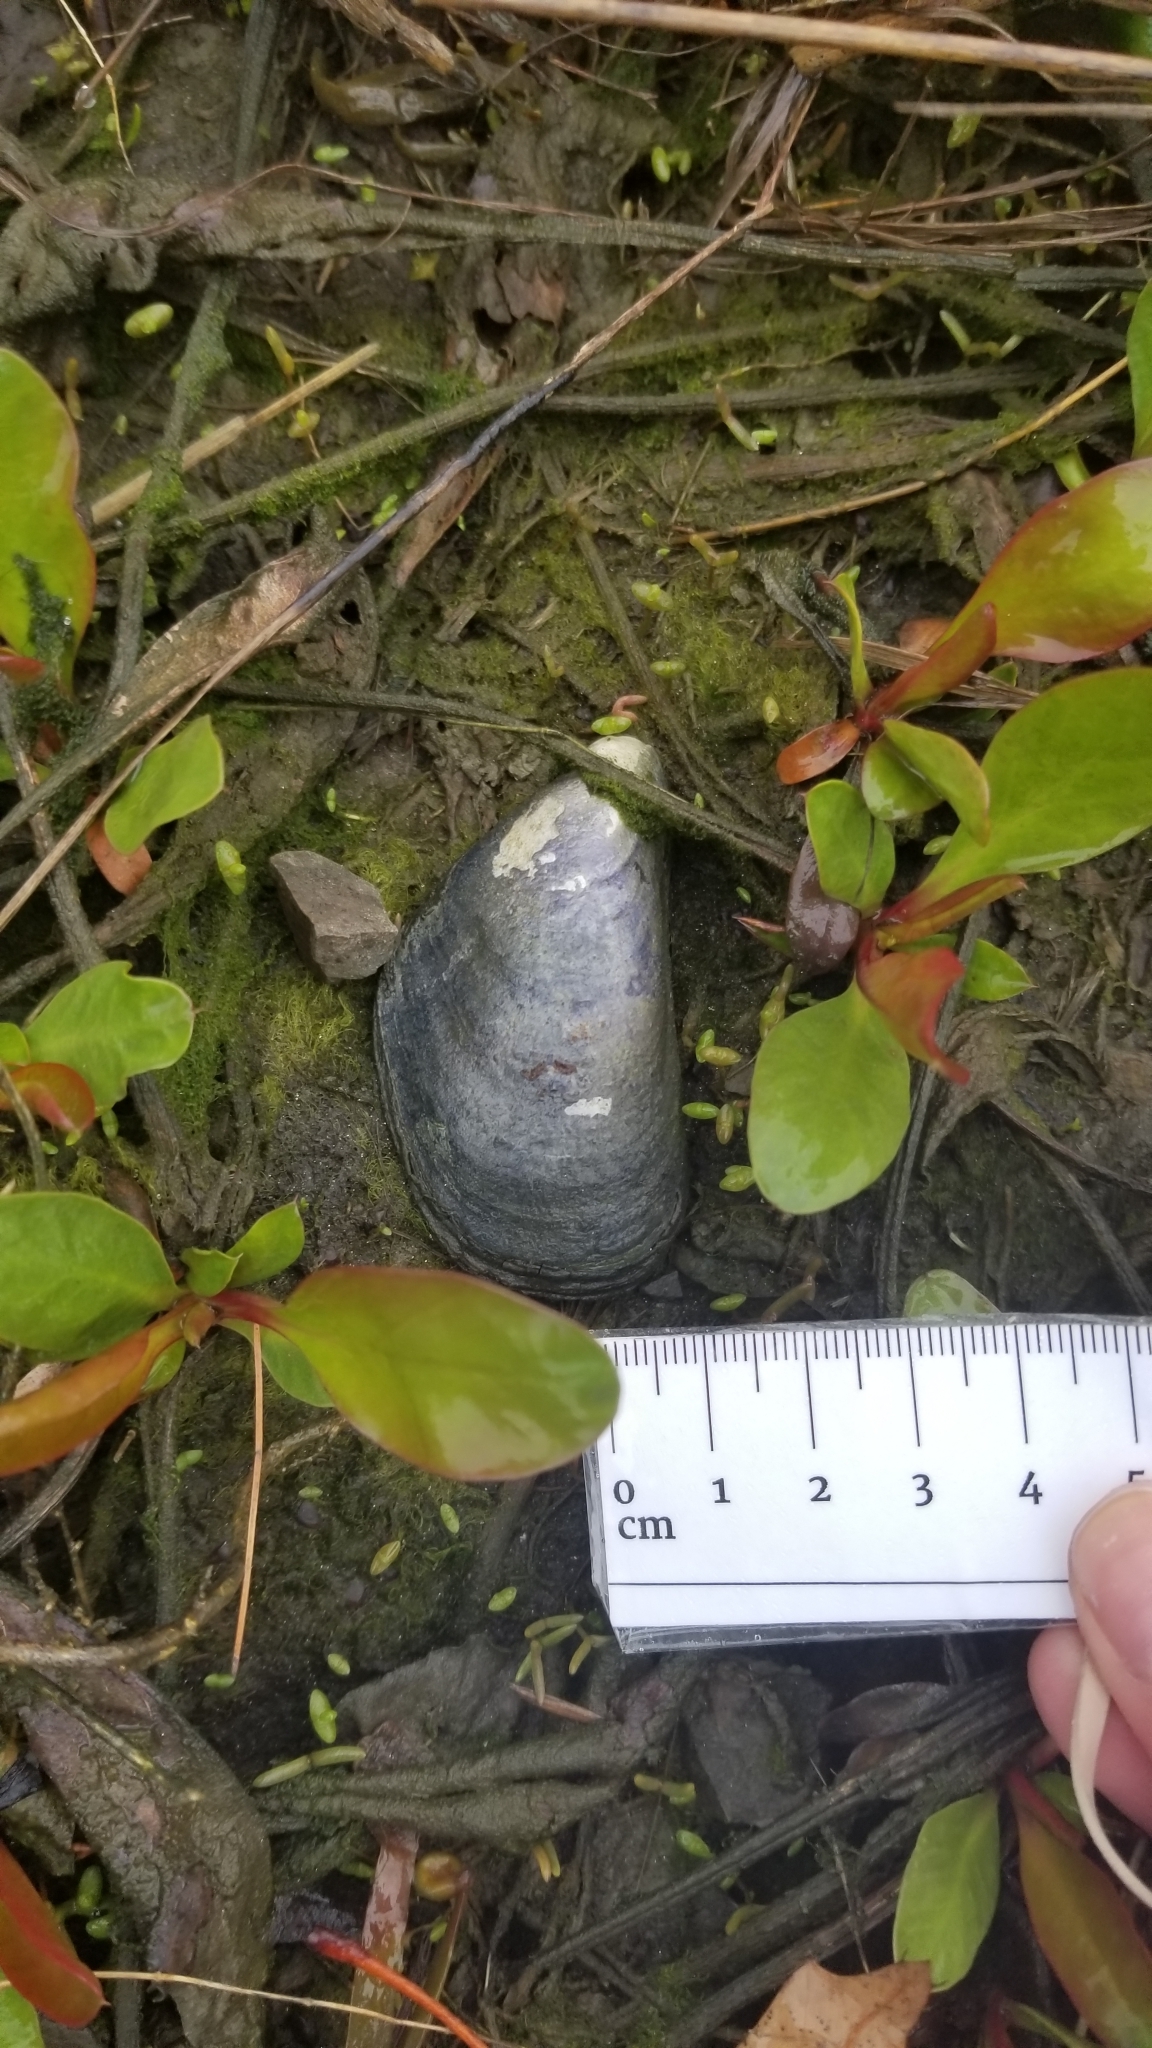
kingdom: Animalia
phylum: Mollusca
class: Bivalvia
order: Mytilida
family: Mytilidae
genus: Mytilus
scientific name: Mytilus edulis
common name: Blue mussel
